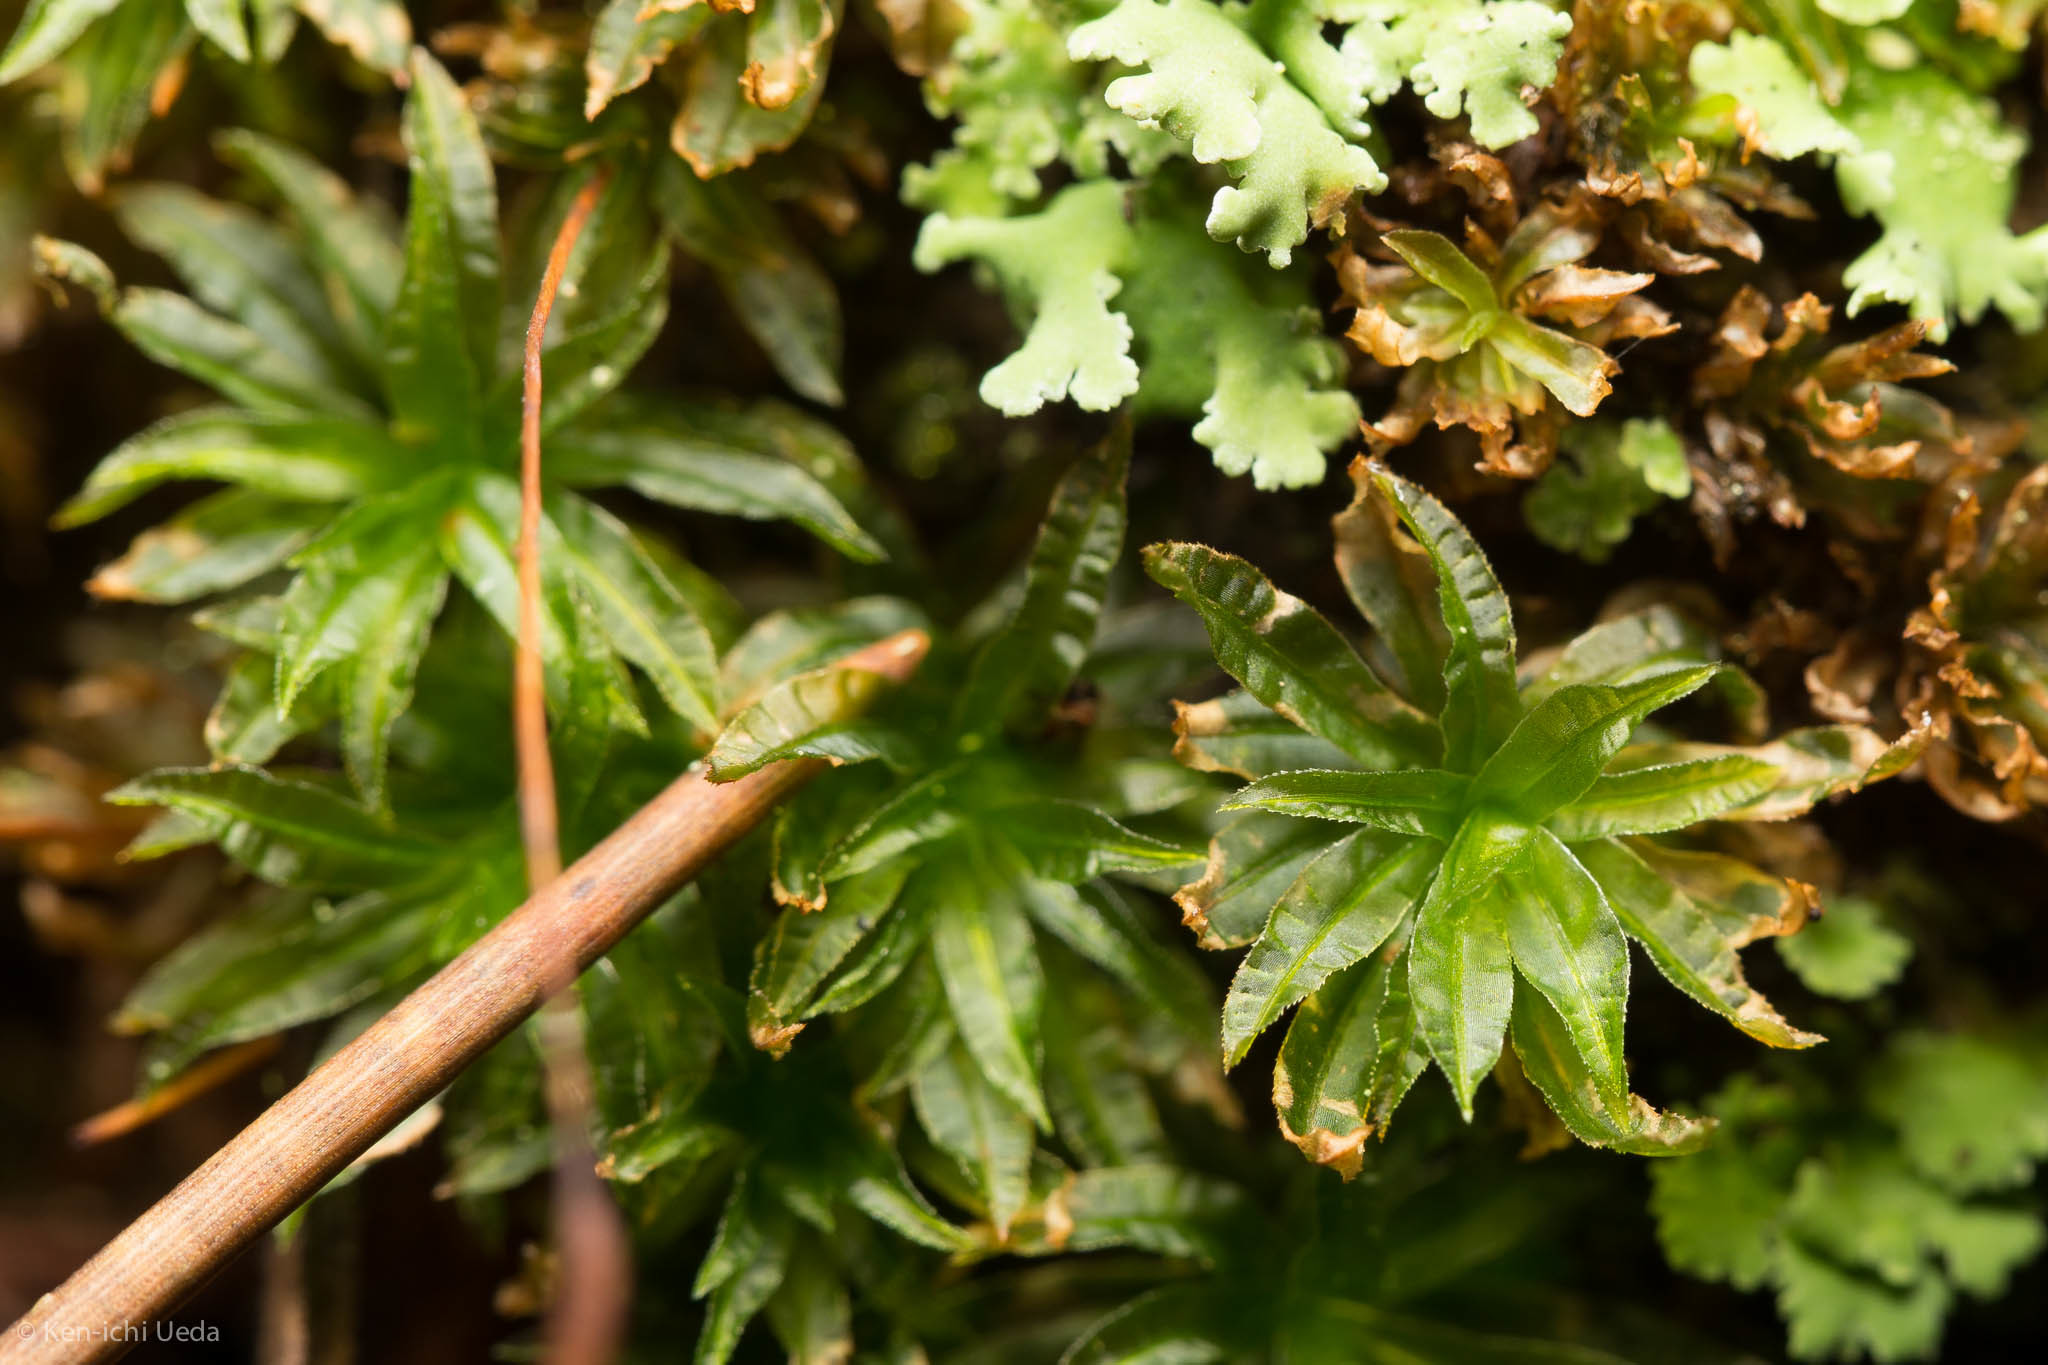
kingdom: Plantae
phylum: Bryophyta
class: Polytrichopsida
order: Polytrichales
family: Polytrichaceae
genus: Atrichum
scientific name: Atrichum selwynii
